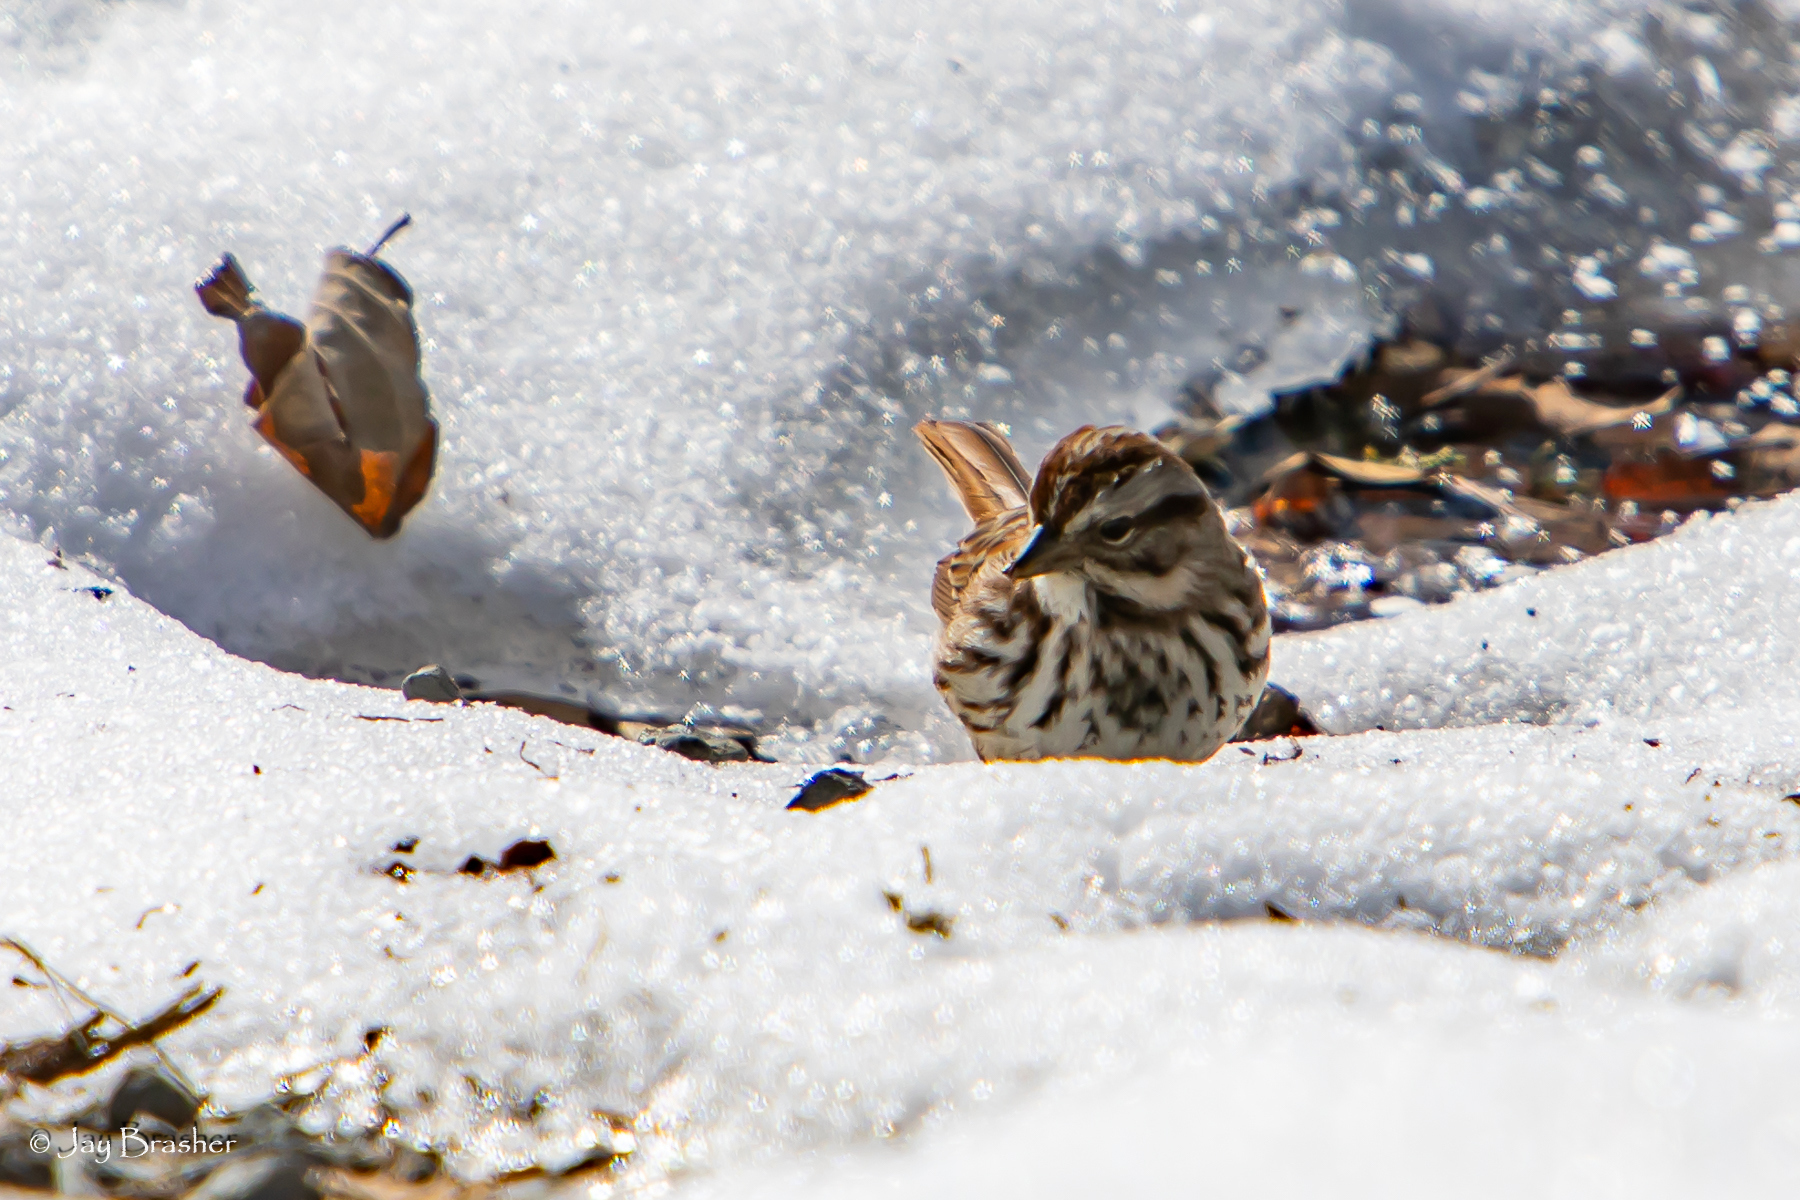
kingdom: Animalia
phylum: Chordata
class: Aves
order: Passeriformes
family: Passerellidae
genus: Melospiza
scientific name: Melospiza melodia
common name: Song sparrow
